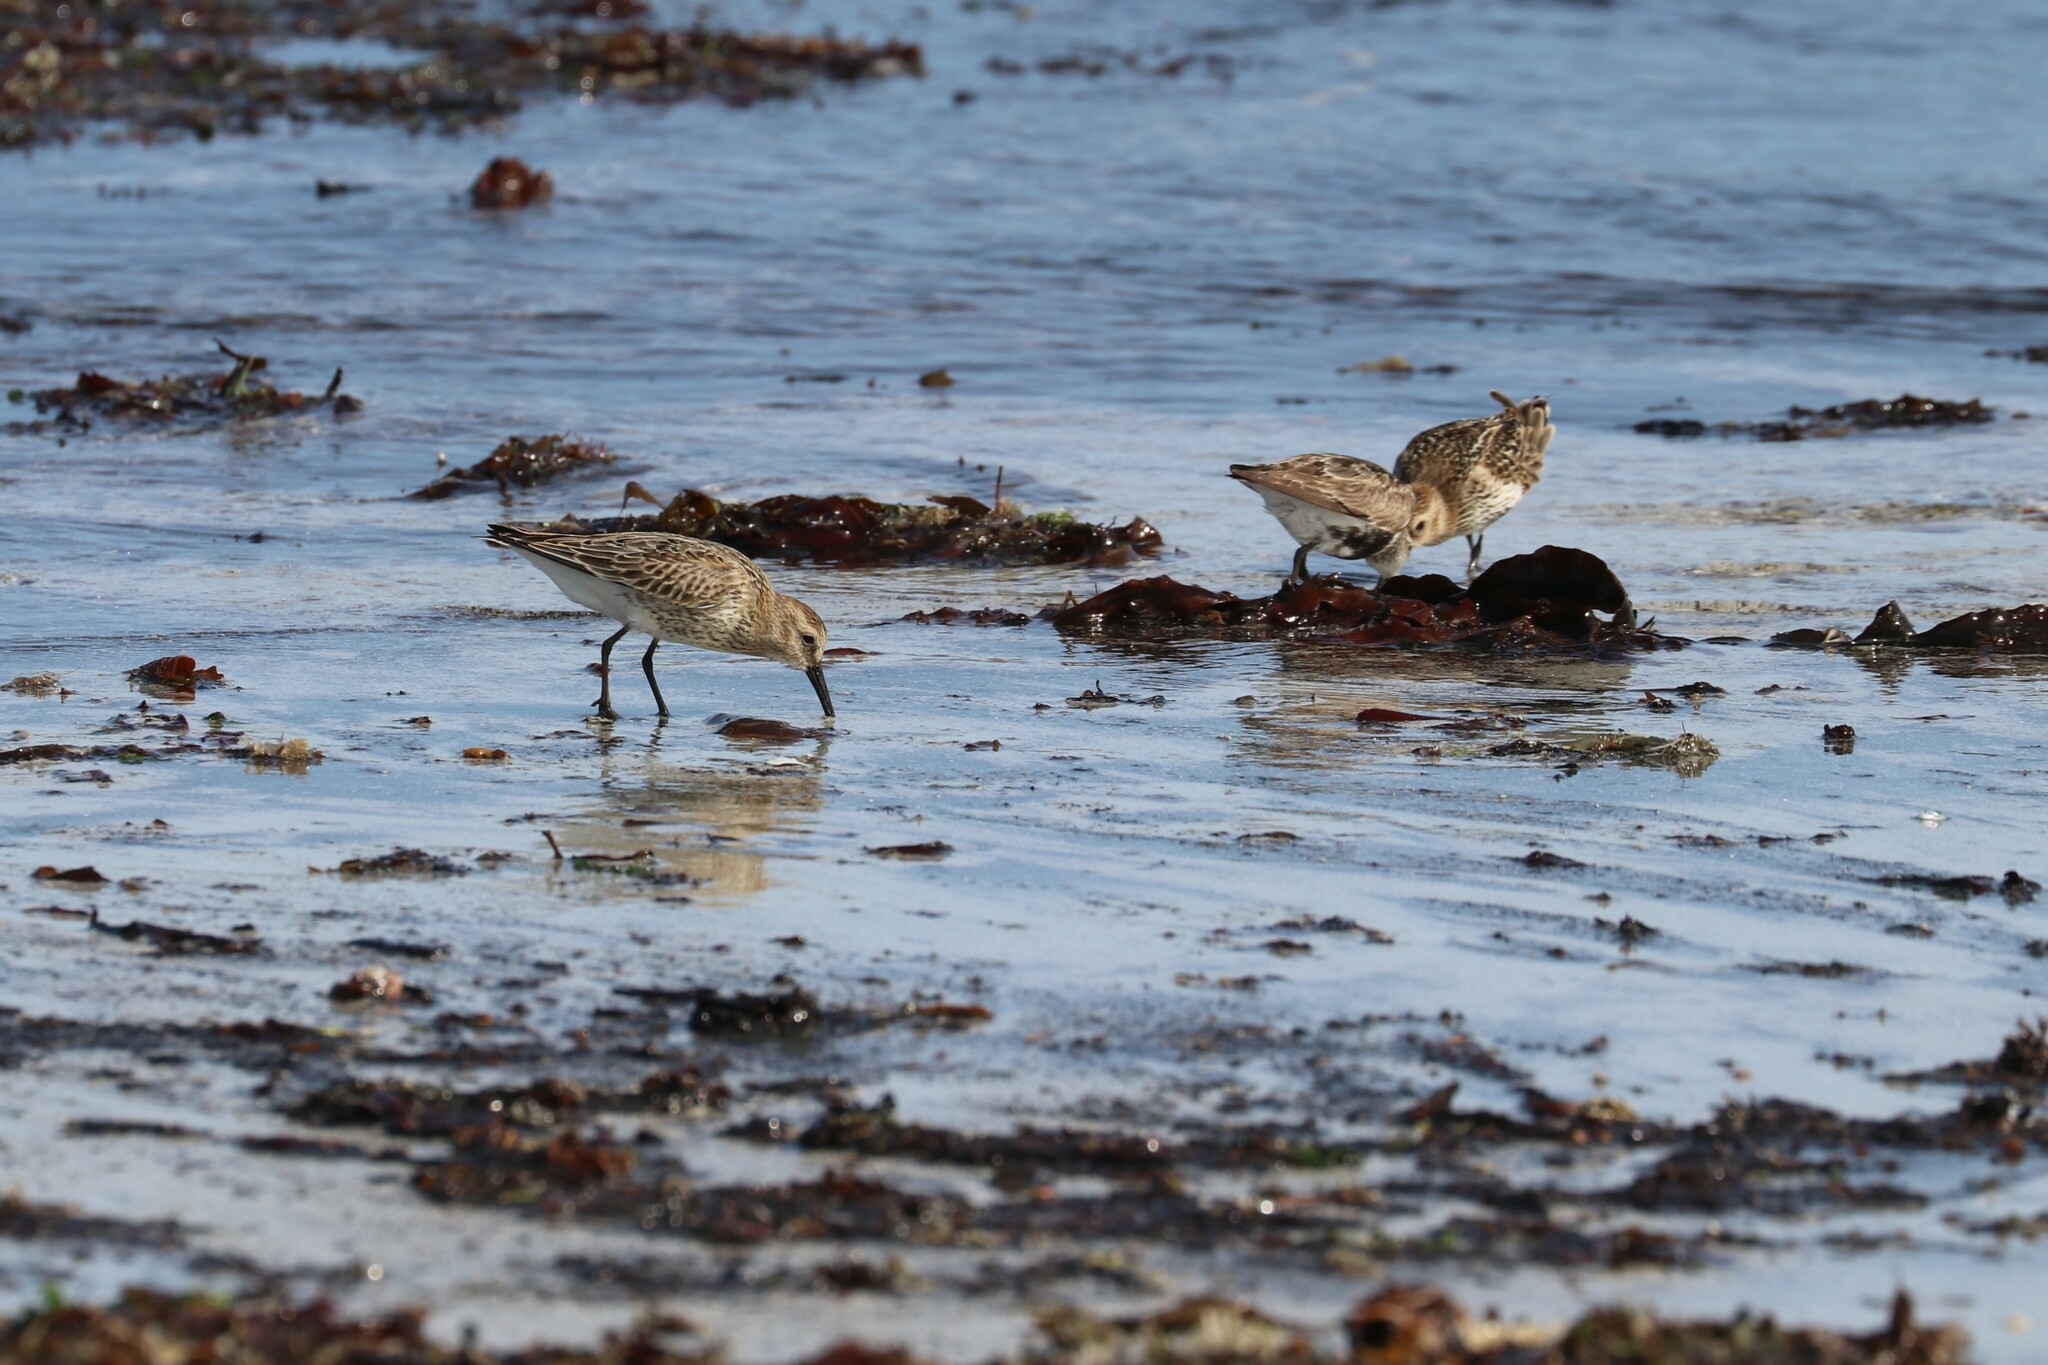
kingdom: Animalia
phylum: Chordata
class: Aves
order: Charadriiformes
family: Scolopacidae
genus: Calidris
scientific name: Calidris alpina
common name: Dunlin
